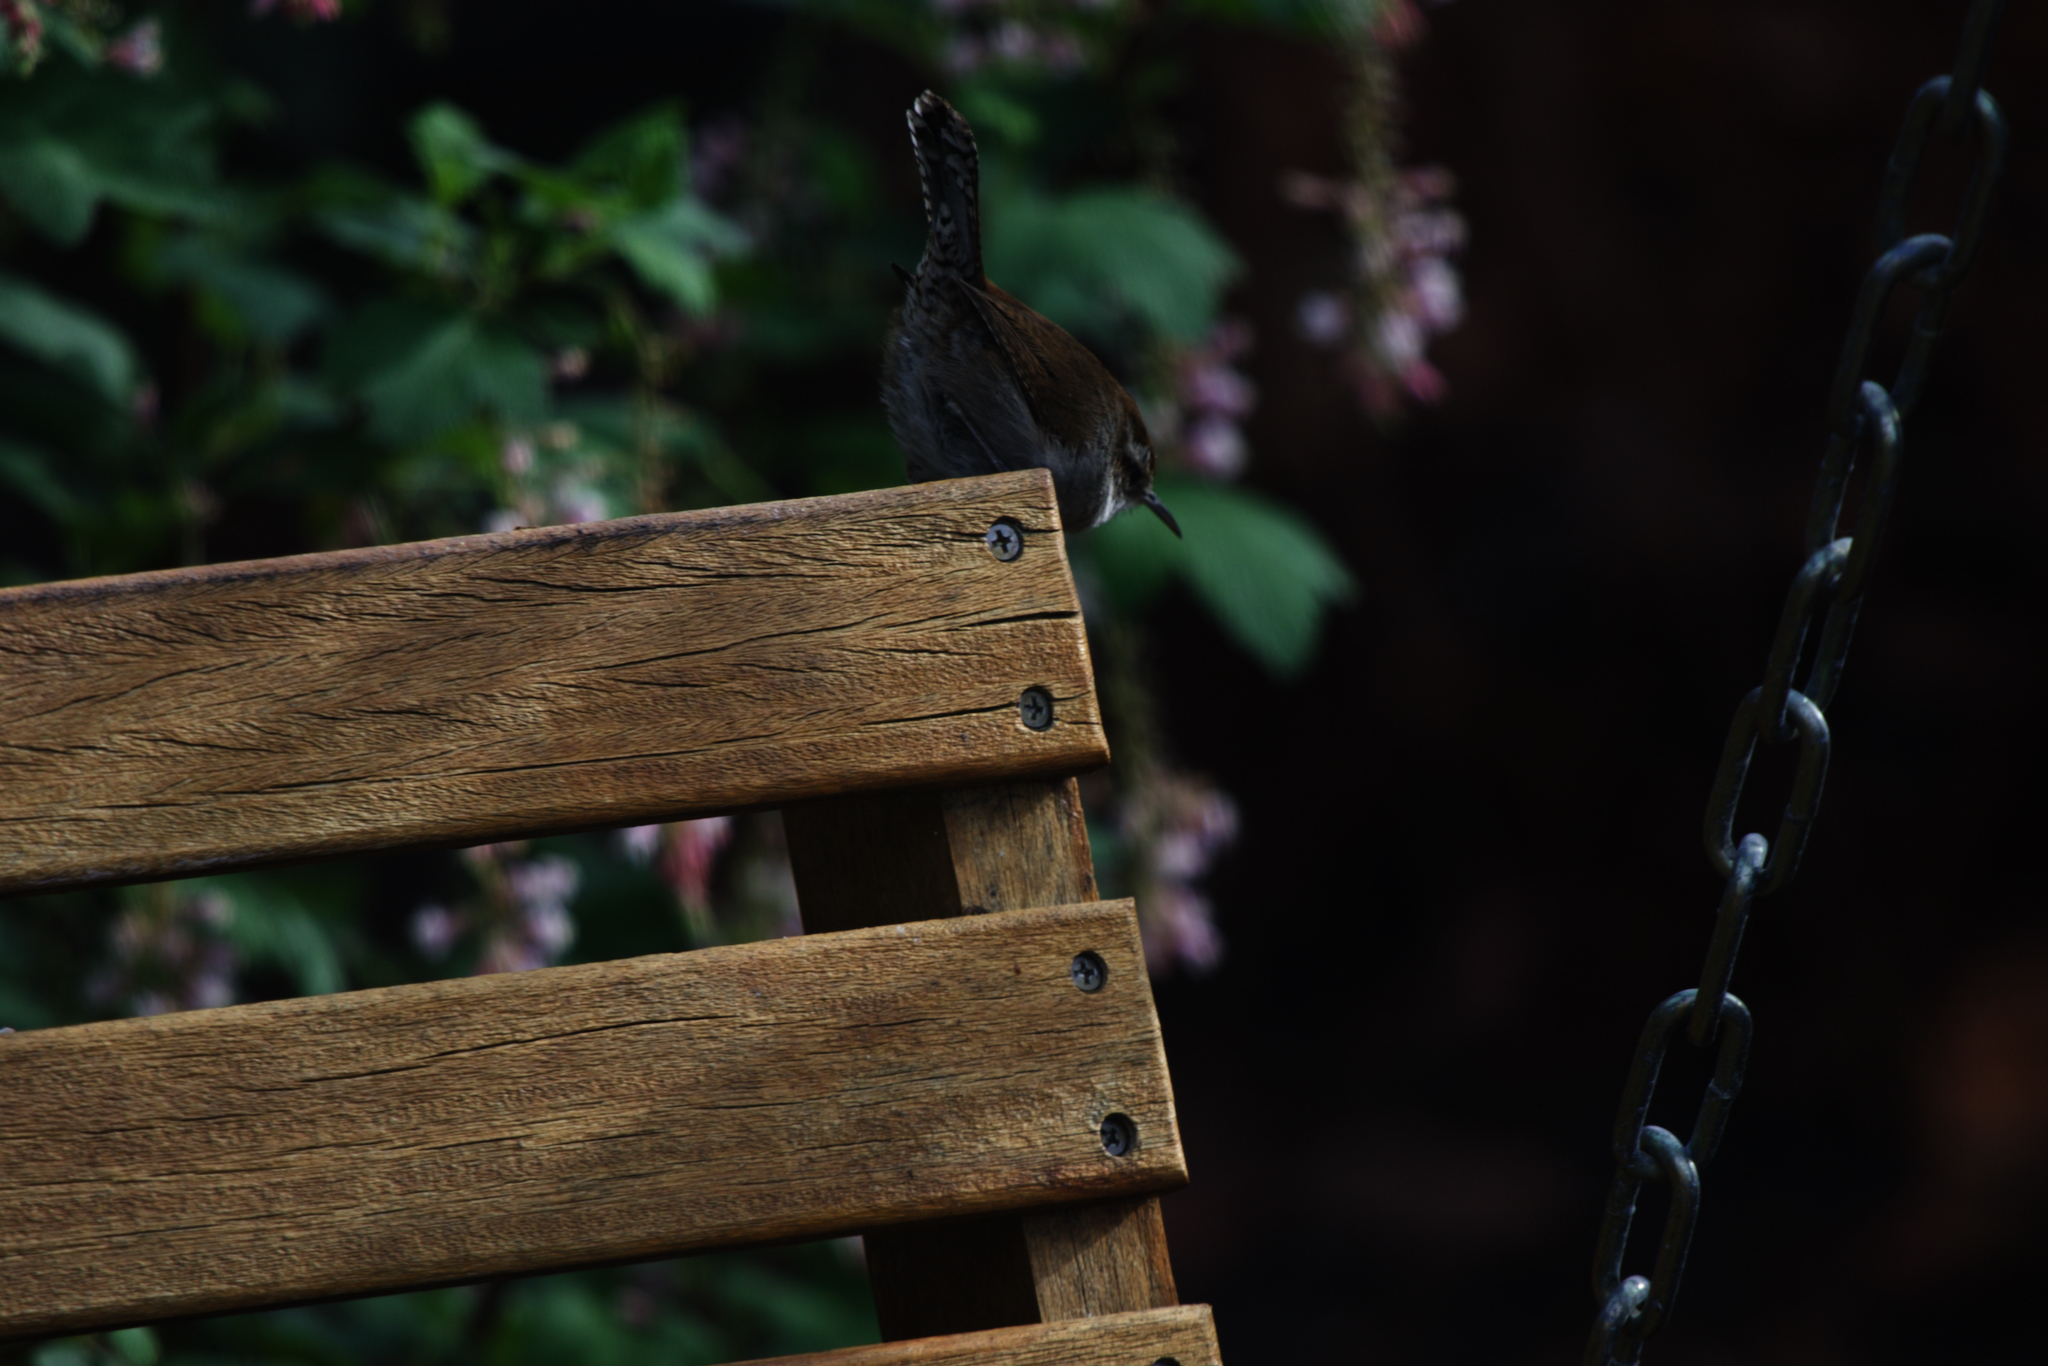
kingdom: Animalia
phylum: Chordata
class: Aves
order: Passeriformes
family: Troglodytidae
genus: Thryomanes
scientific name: Thryomanes bewickii
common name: Bewick's wren
